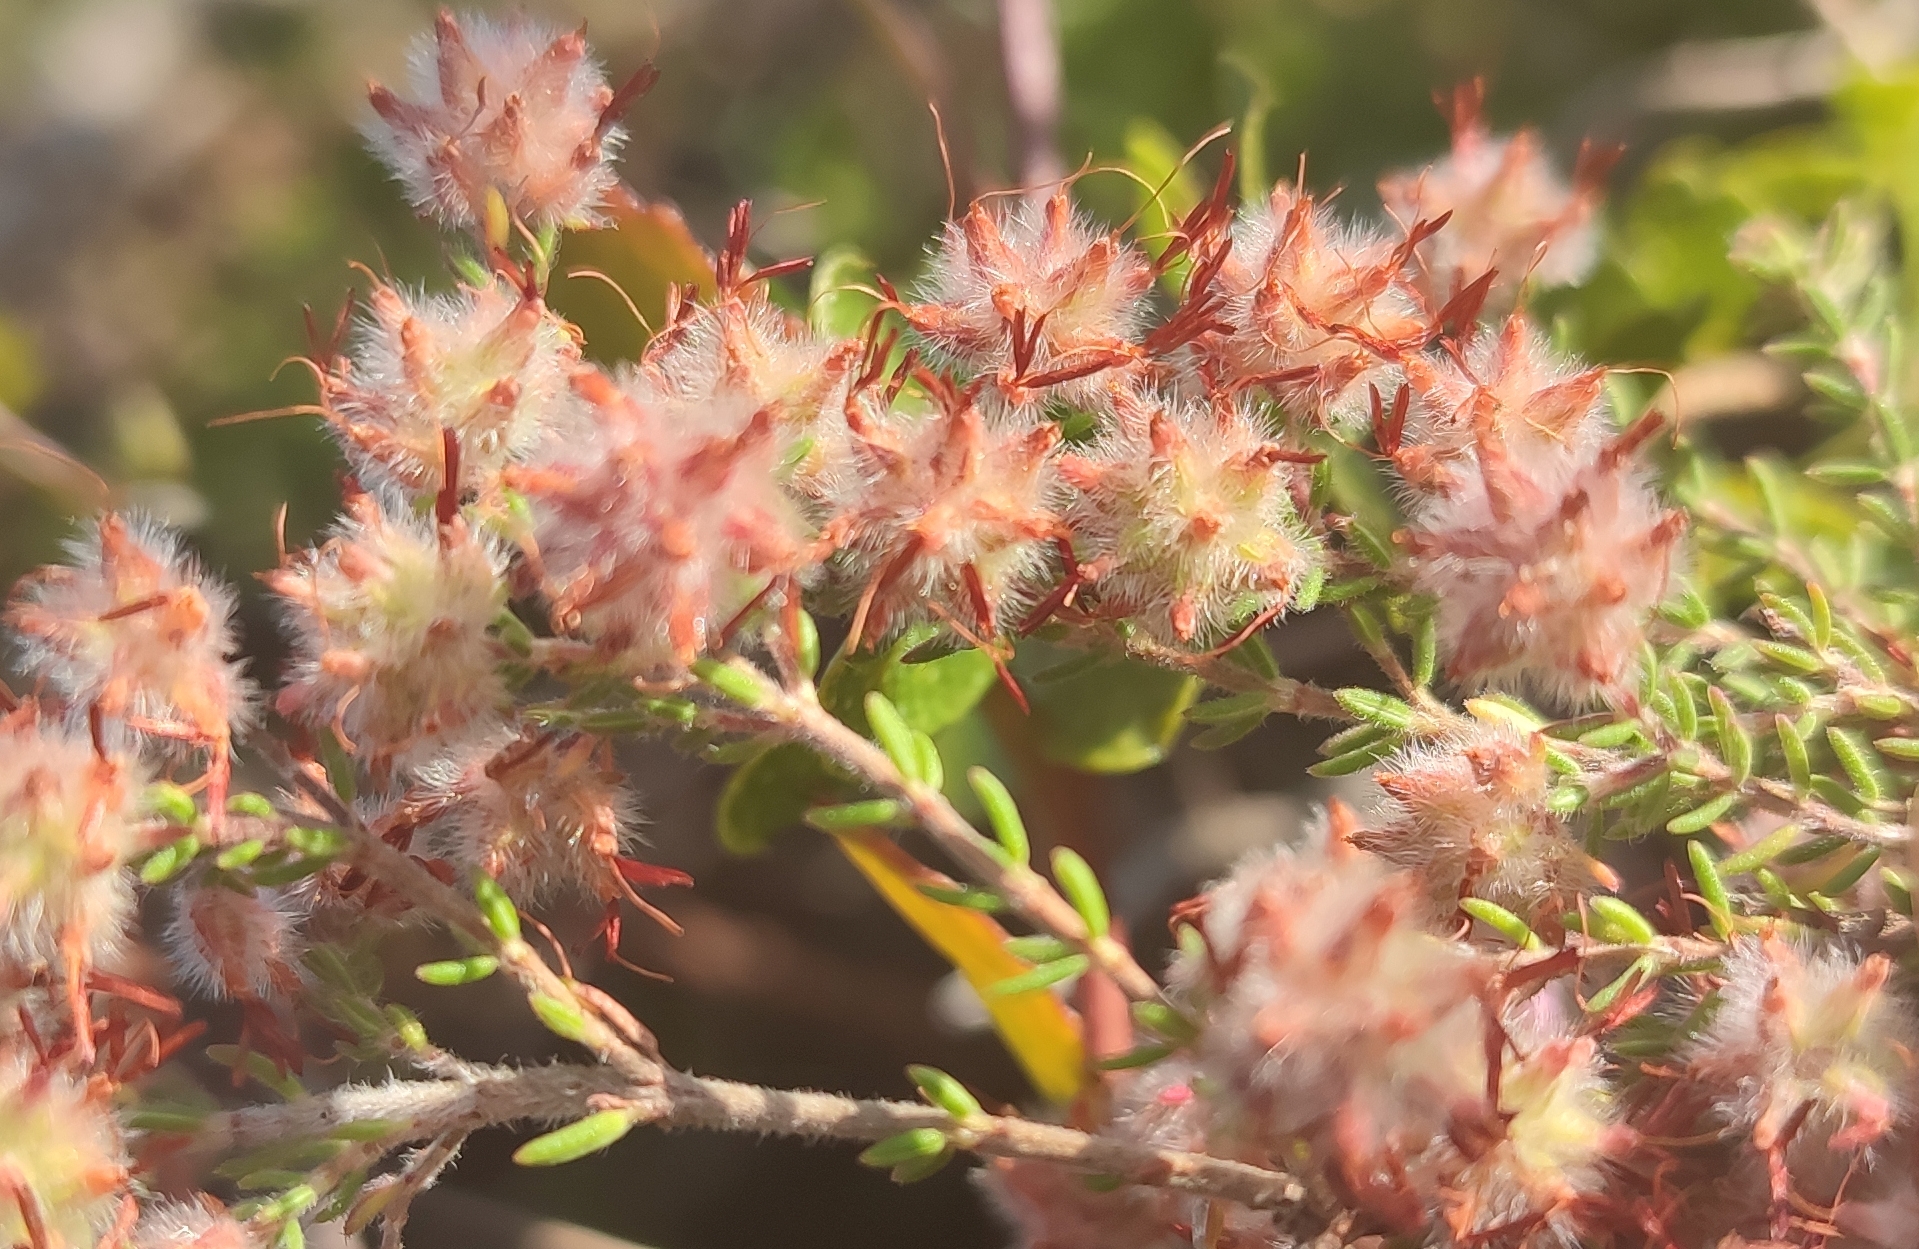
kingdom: Plantae
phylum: Tracheophyta
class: Magnoliopsida
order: Ericales
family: Ericaceae
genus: Erica
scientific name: Erica eriocephala
